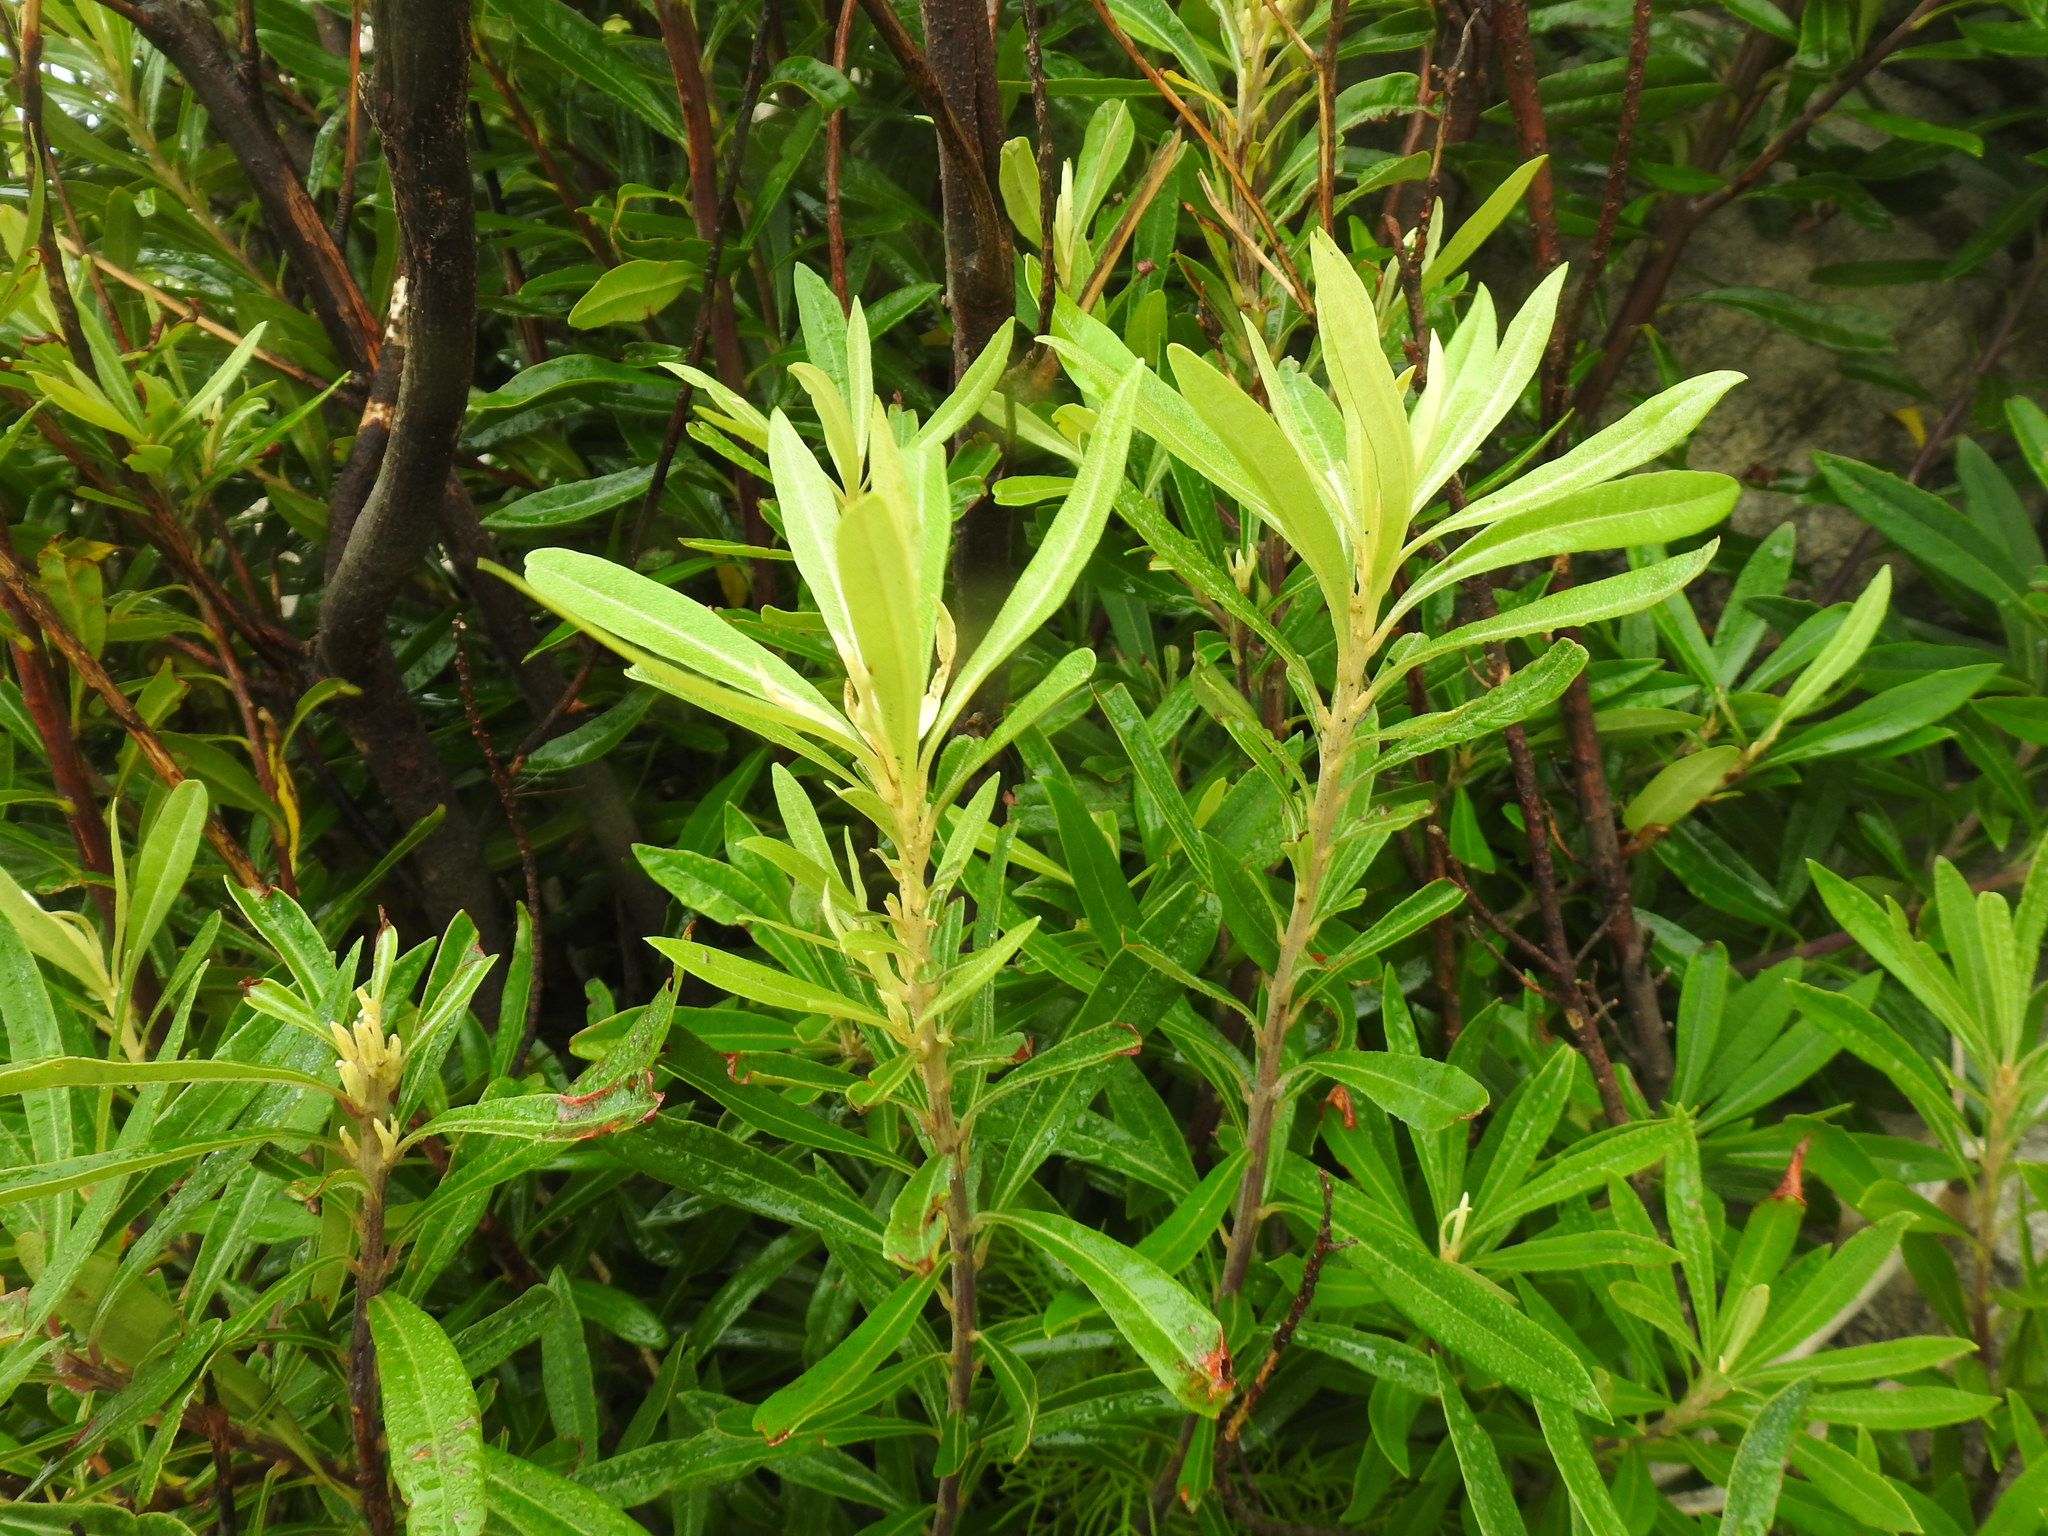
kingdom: Plantae
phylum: Tracheophyta
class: Magnoliopsida
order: Asterales
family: Asteraceae
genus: Brachylaena
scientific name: Brachylaena neriifolia
